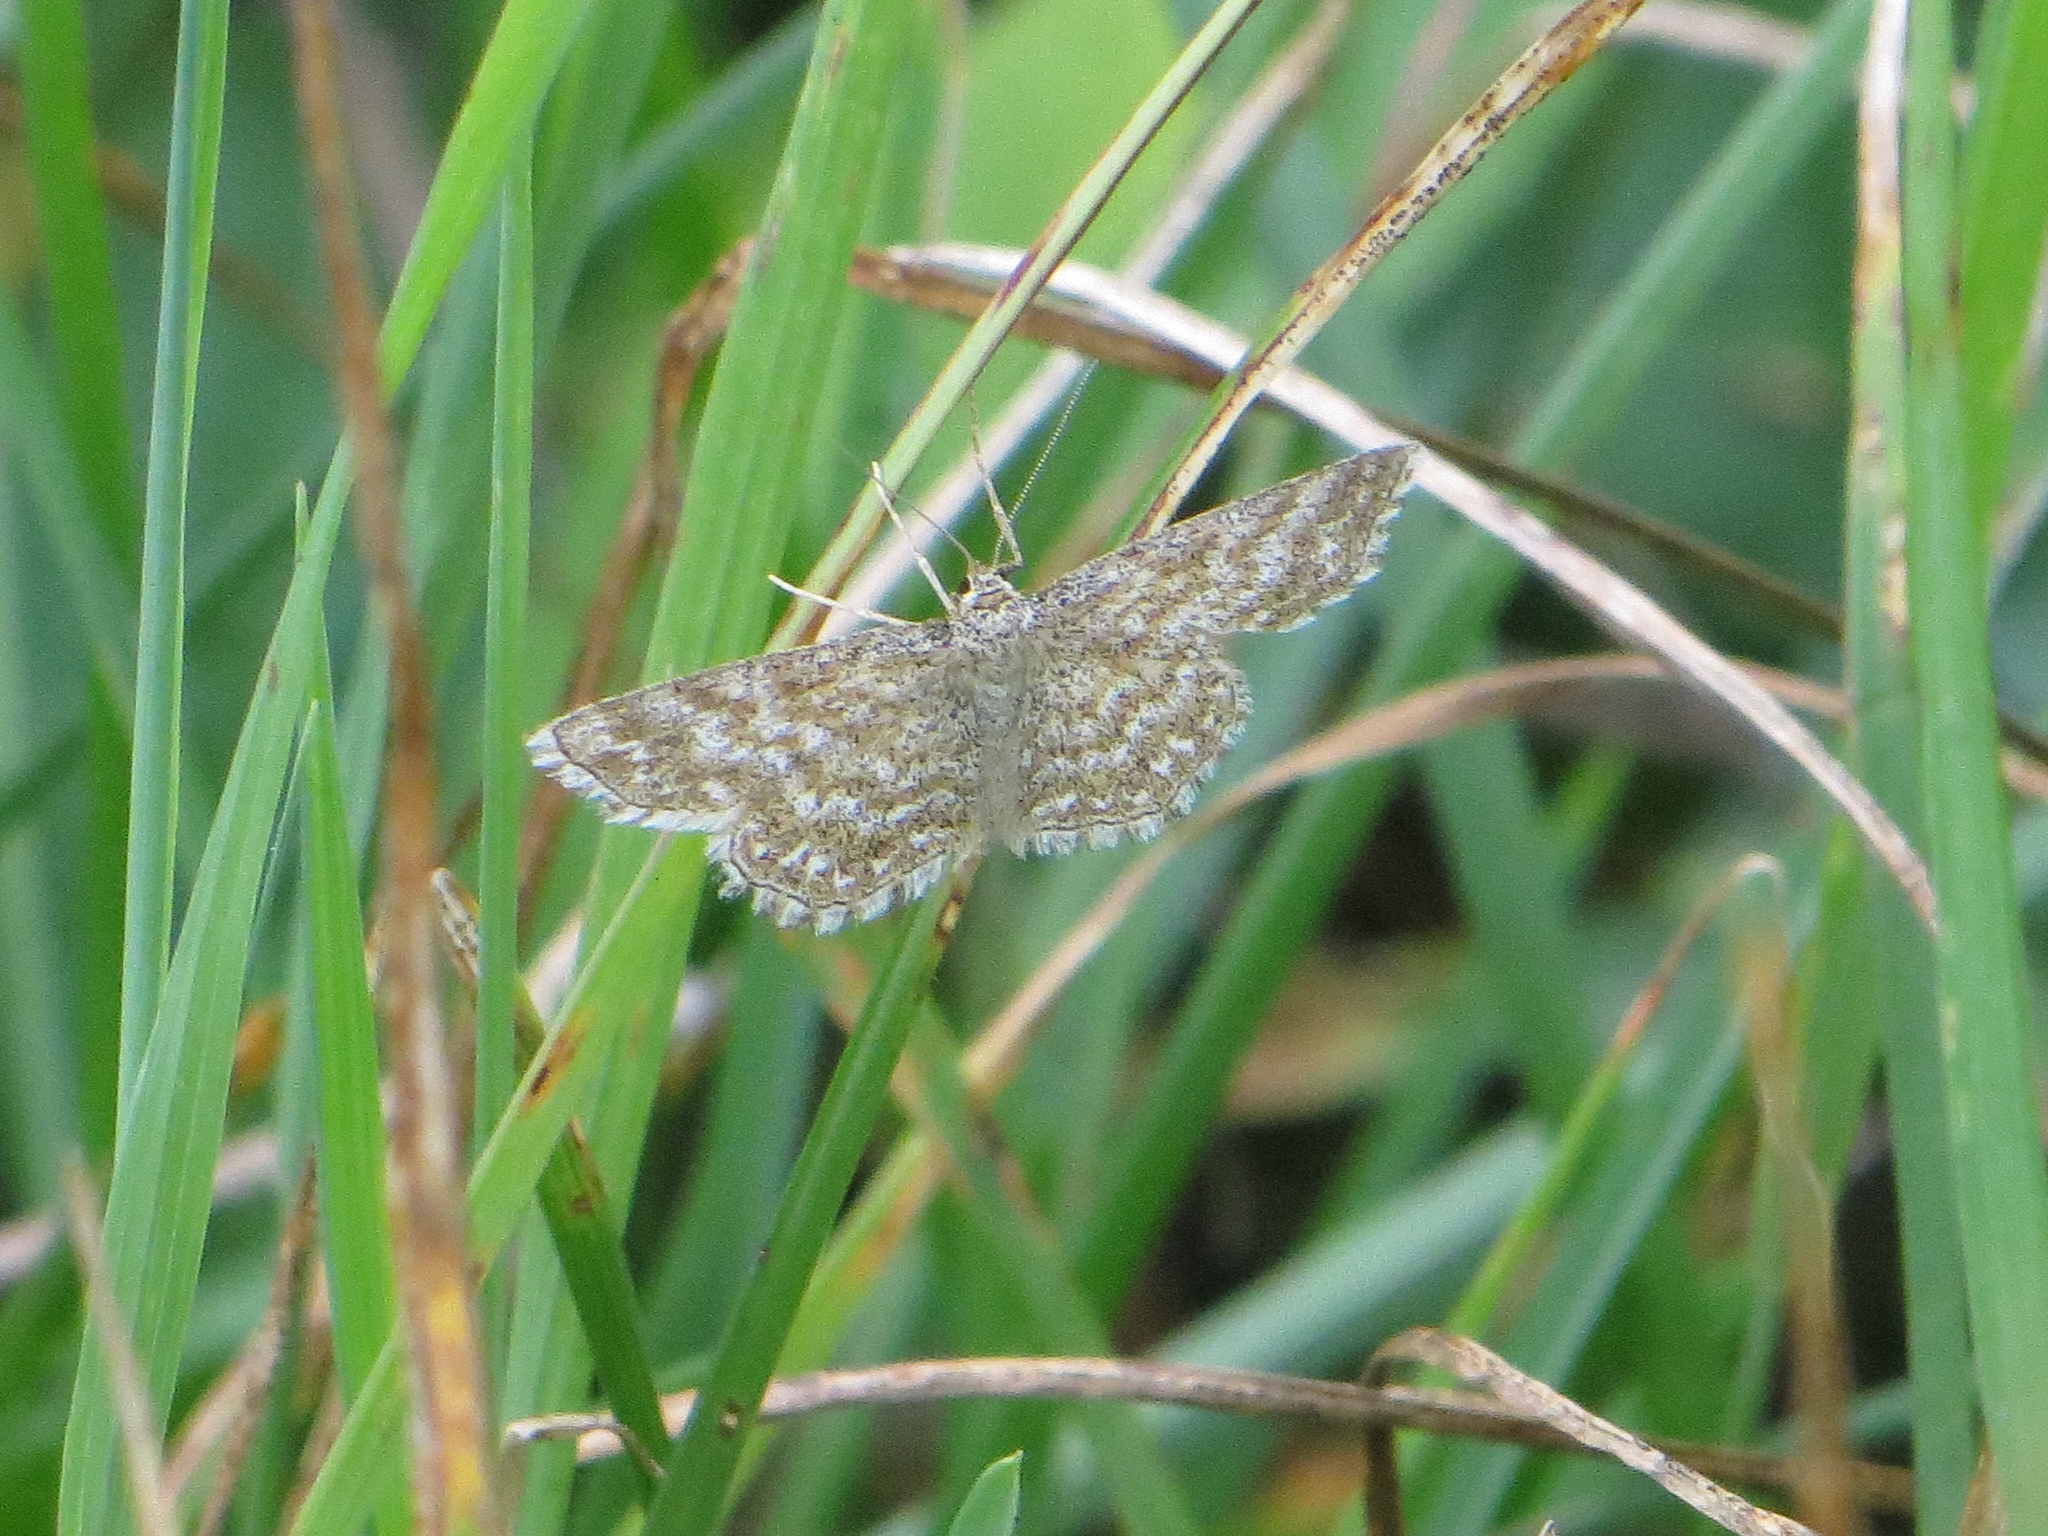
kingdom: Animalia
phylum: Arthropoda
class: Insecta
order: Lepidoptera
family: Geometridae
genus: Scopula
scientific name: Scopula immorata
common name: Lewes wave
